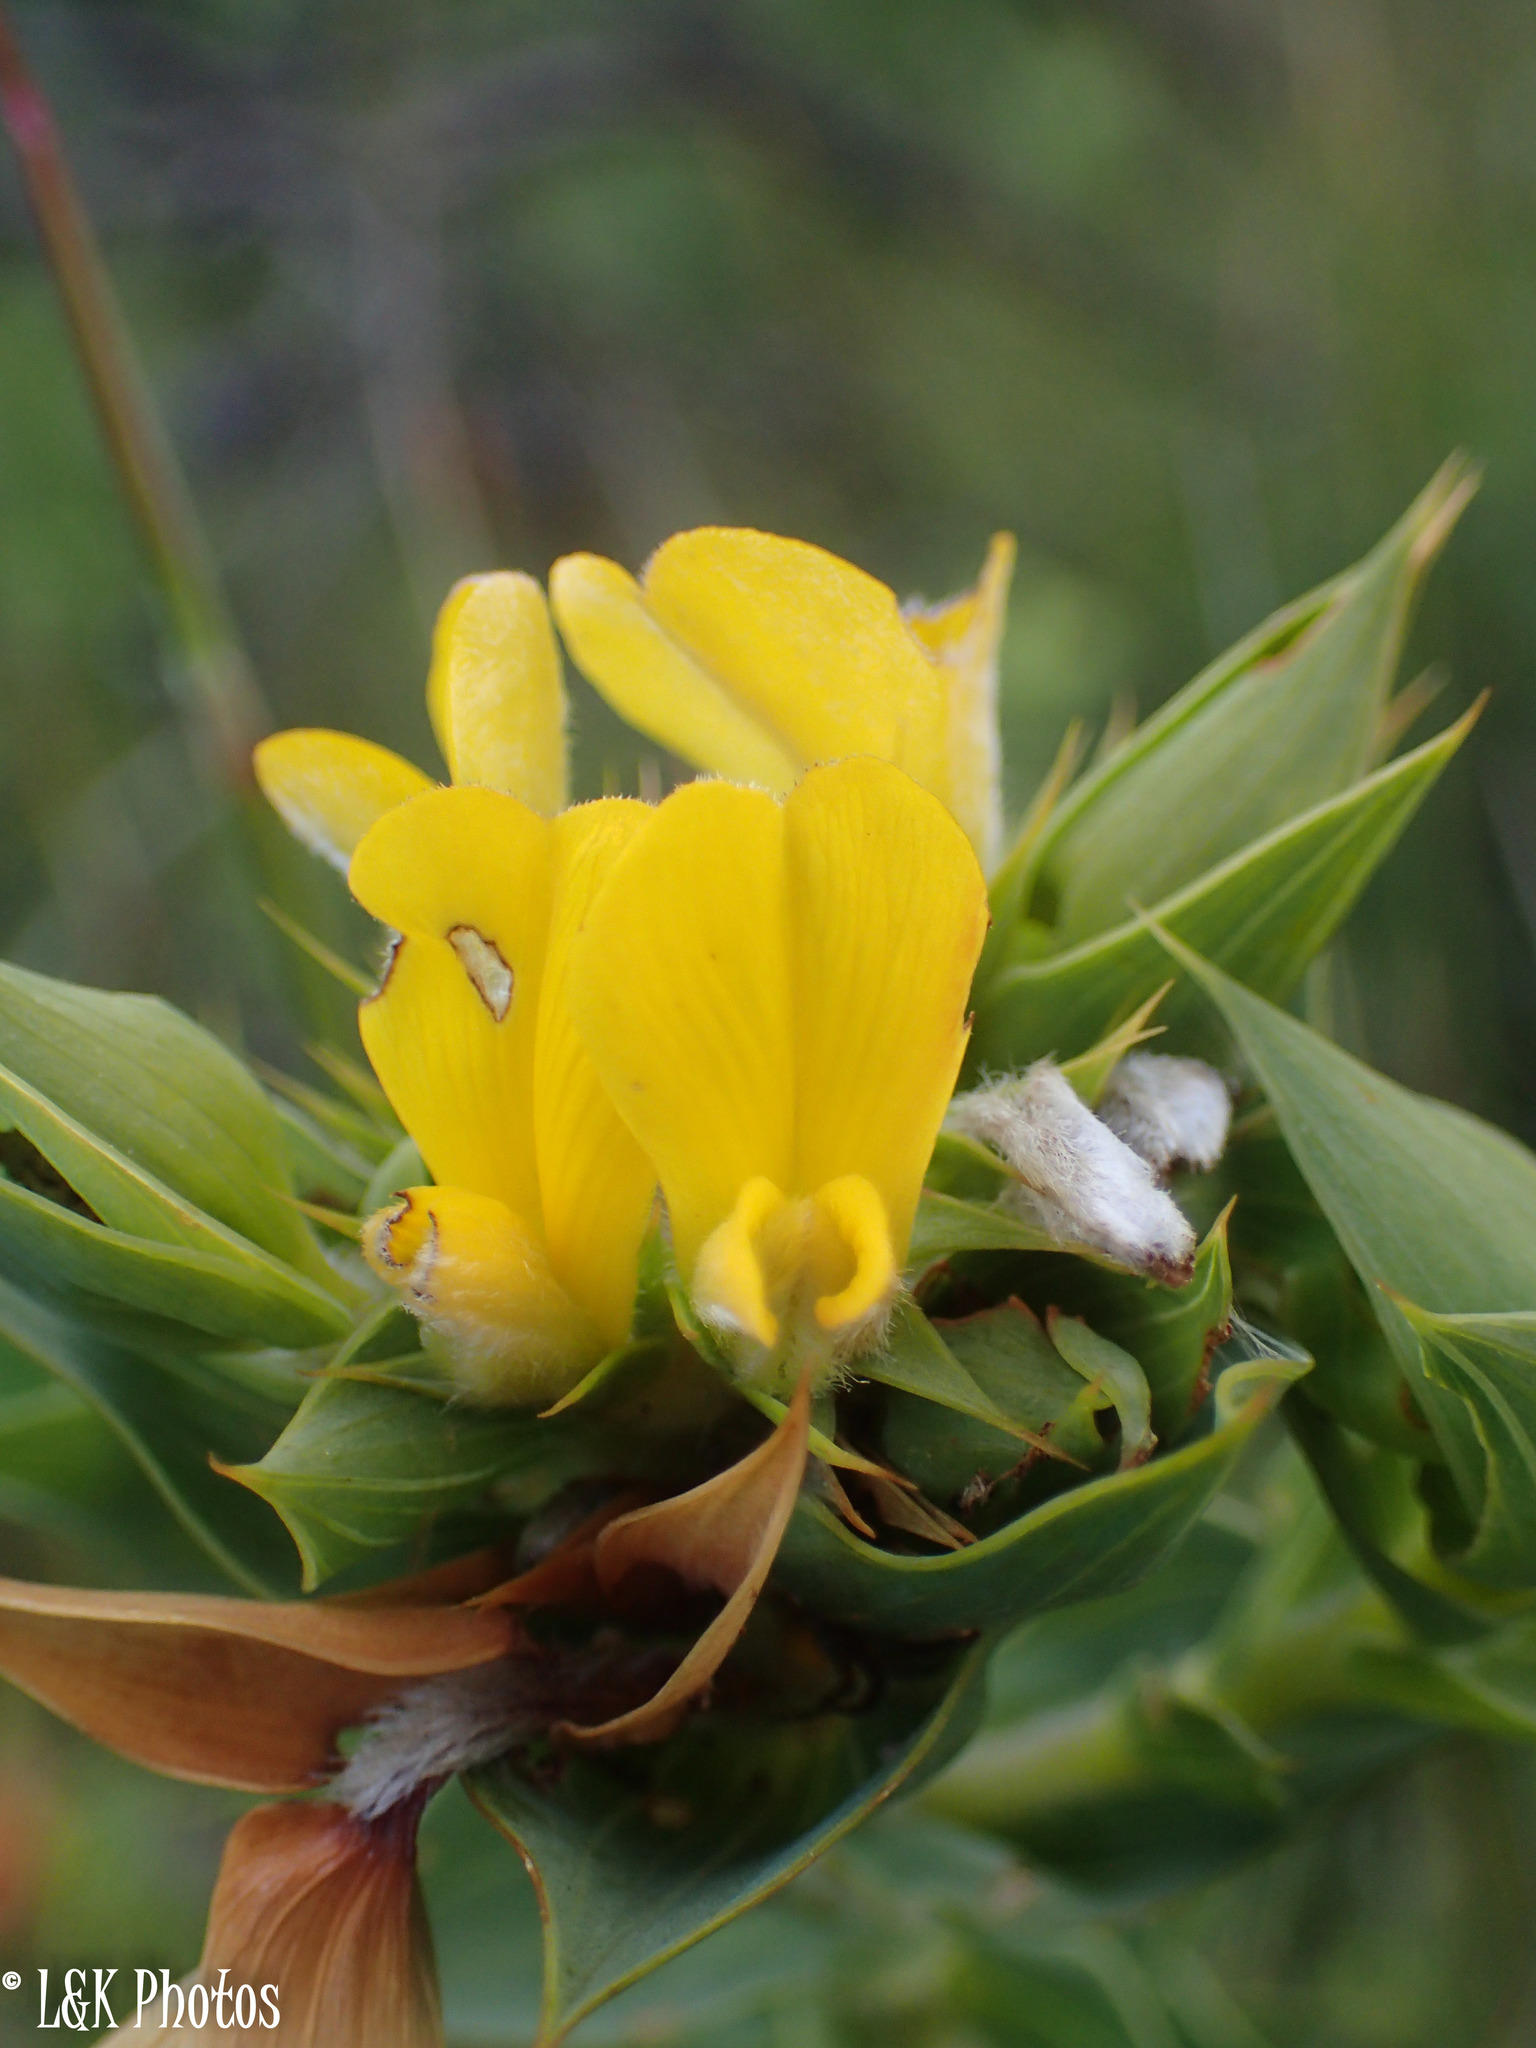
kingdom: Plantae
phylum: Tracheophyta
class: Magnoliopsida
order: Fabales
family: Fabaceae
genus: Aspalathus
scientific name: Aspalathus cordata
